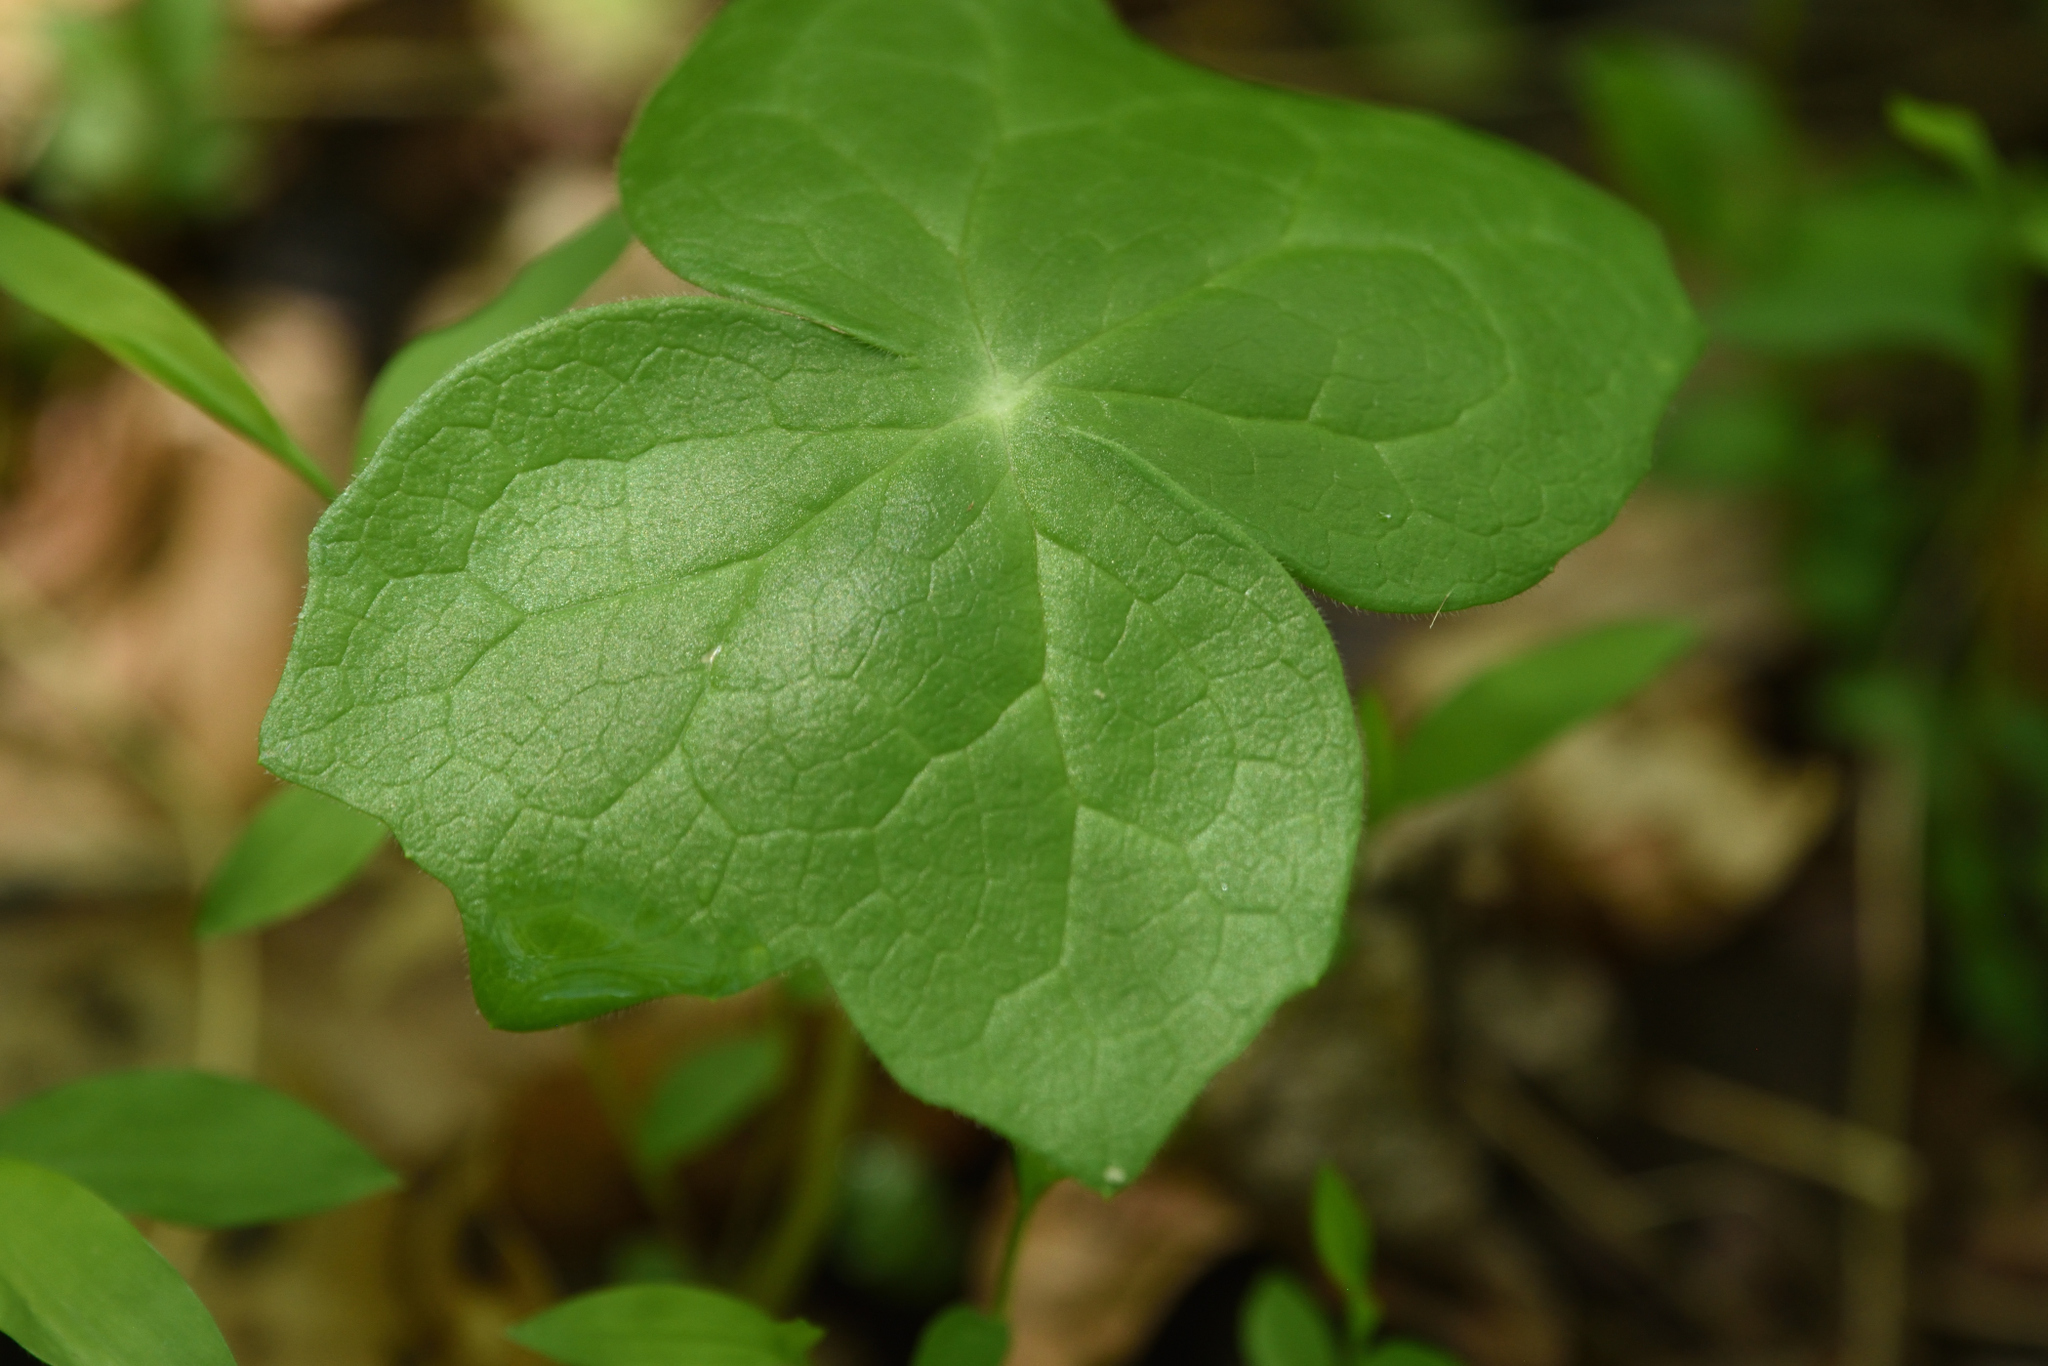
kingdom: Plantae
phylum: Tracheophyta
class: Magnoliopsida
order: Ranunculales
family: Berberidaceae
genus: Podophyllum
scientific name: Podophyllum peltatum
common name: Wild mandrake
